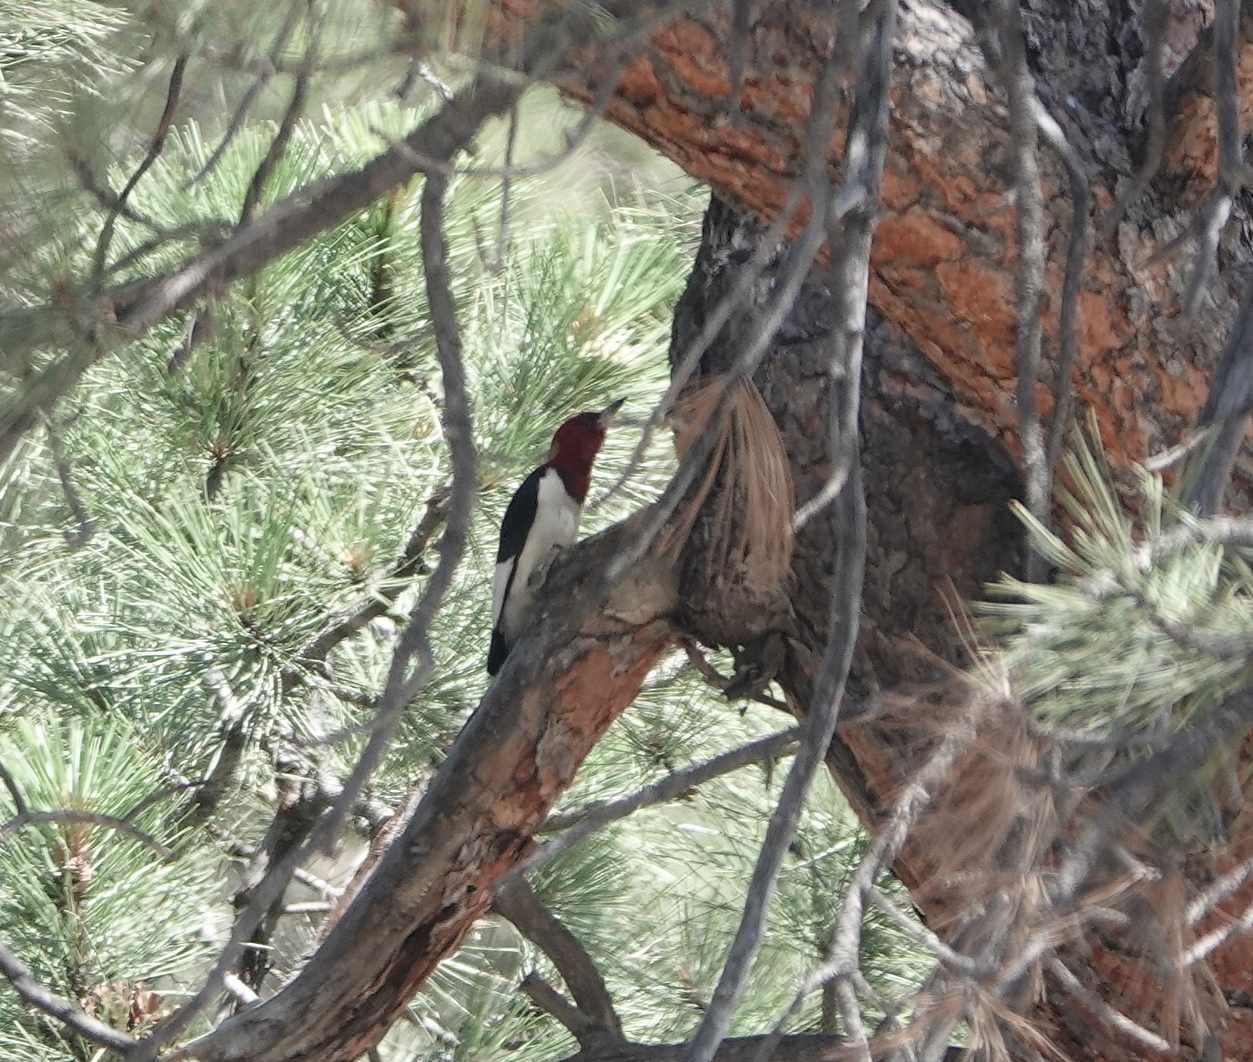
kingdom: Animalia
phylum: Chordata
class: Aves
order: Piciformes
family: Picidae
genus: Melanerpes
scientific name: Melanerpes erythrocephalus
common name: Red-headed woodpecker
